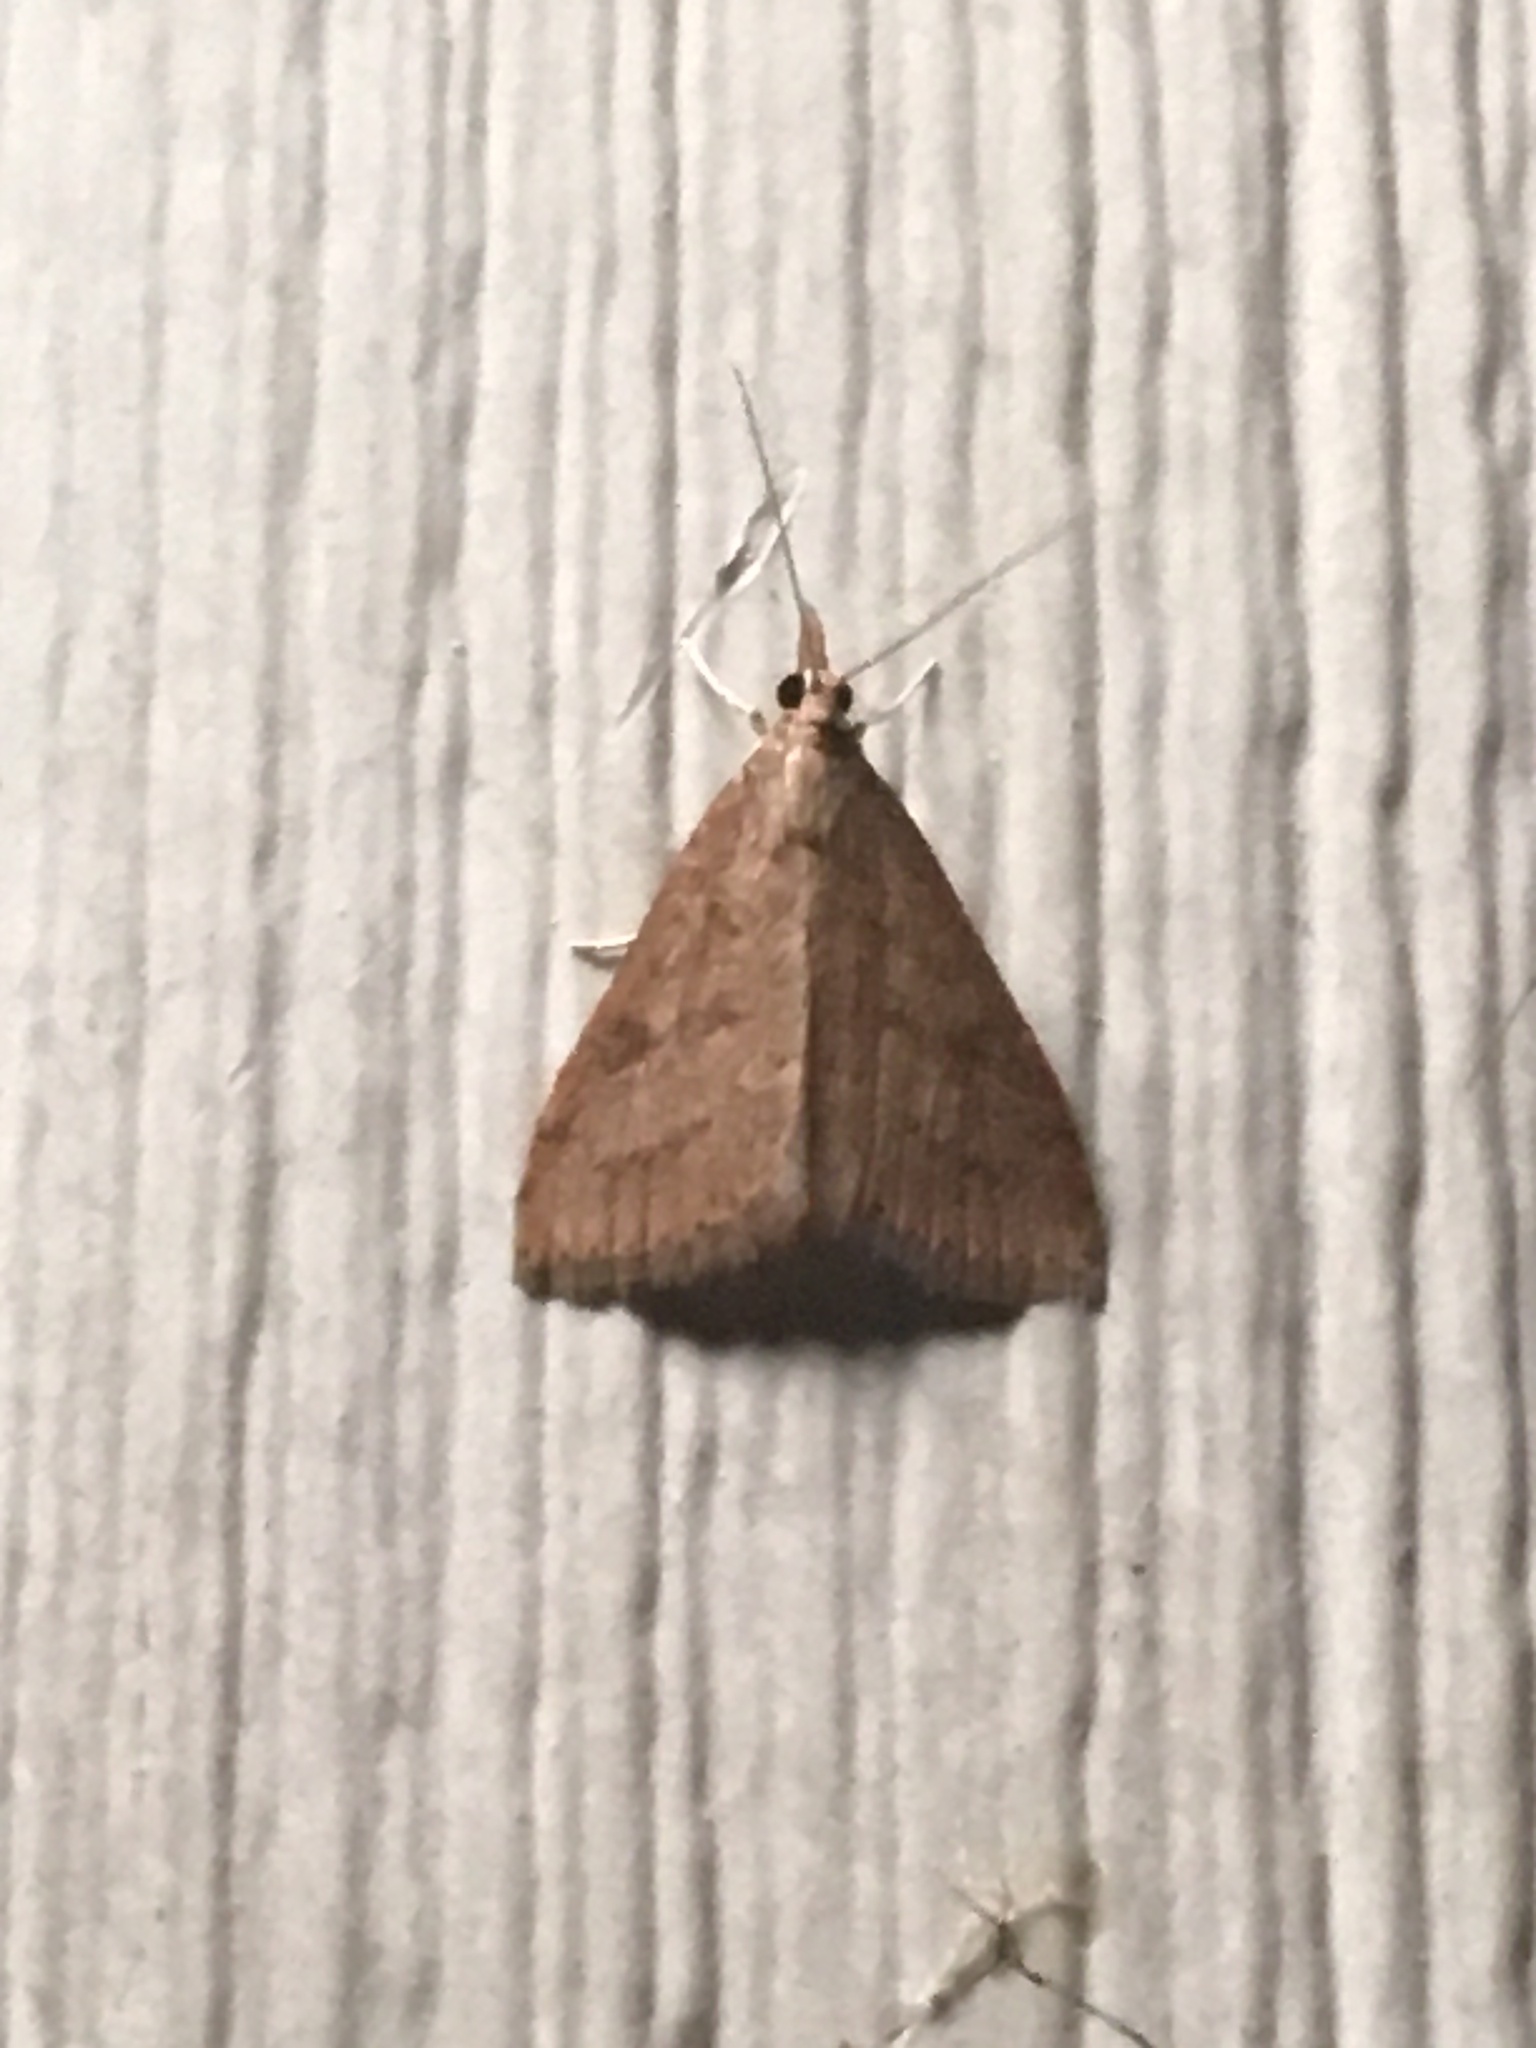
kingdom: Animalia
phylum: Arthropoda
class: Insecta
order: Lepidoptera
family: Crambidae
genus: Udea
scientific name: Udea rubigalis
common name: Celery leaftier moth
